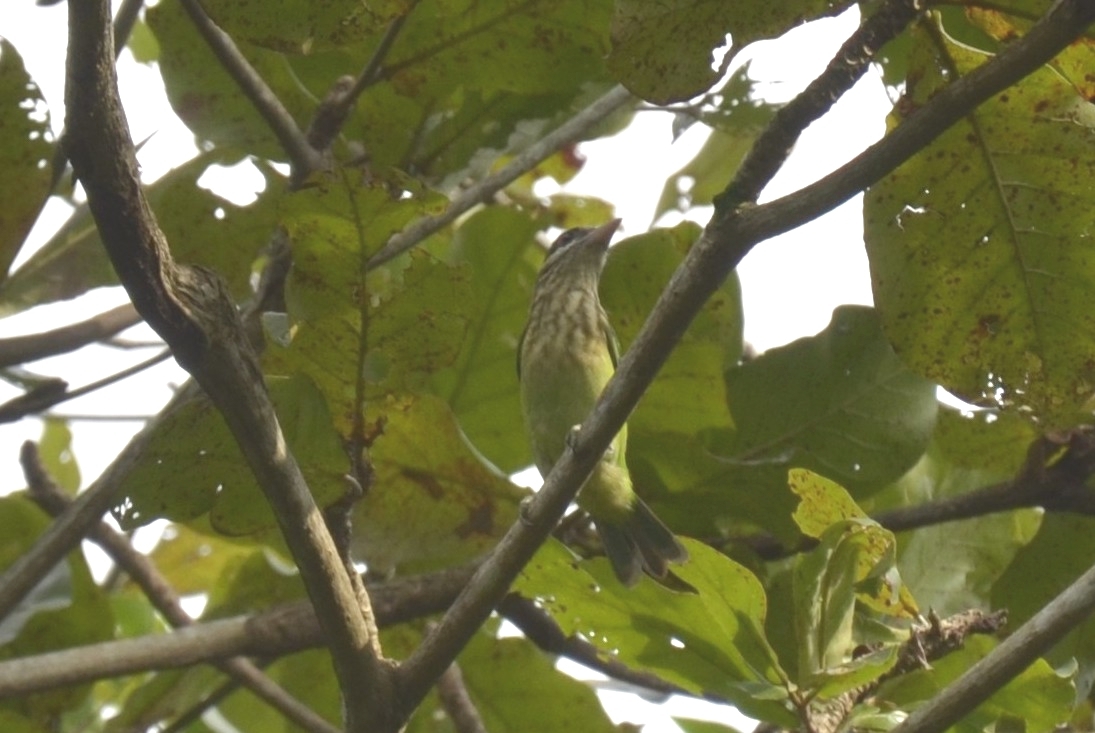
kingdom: Animalia
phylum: Chordata
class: Aves
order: Piciformes
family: Megalaimidae
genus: Psilopogon
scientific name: Psilopogon viridis
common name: White-cheeked barbet
